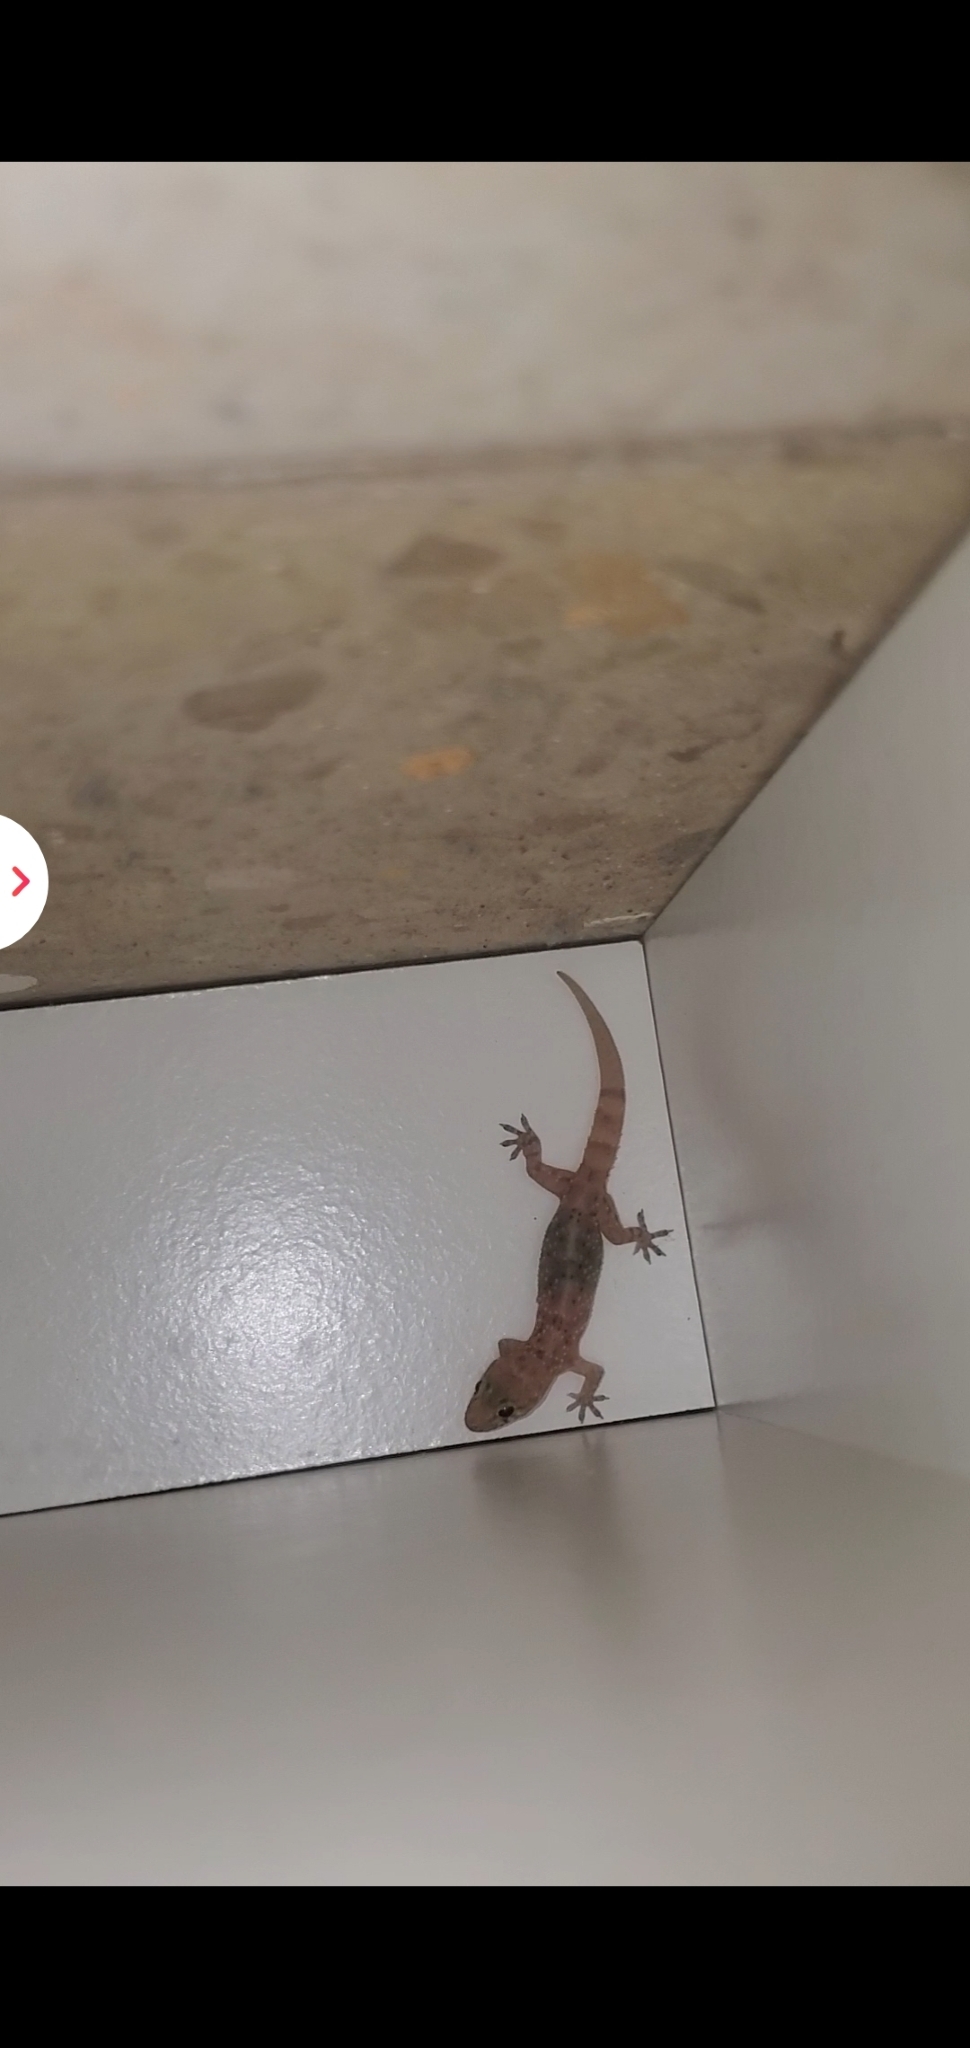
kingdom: Animalia
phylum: Chordata
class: Squamata
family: Gekkonidae
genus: Hemidactylus
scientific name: Hemidactylus turcicus
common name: Turkish gecko
